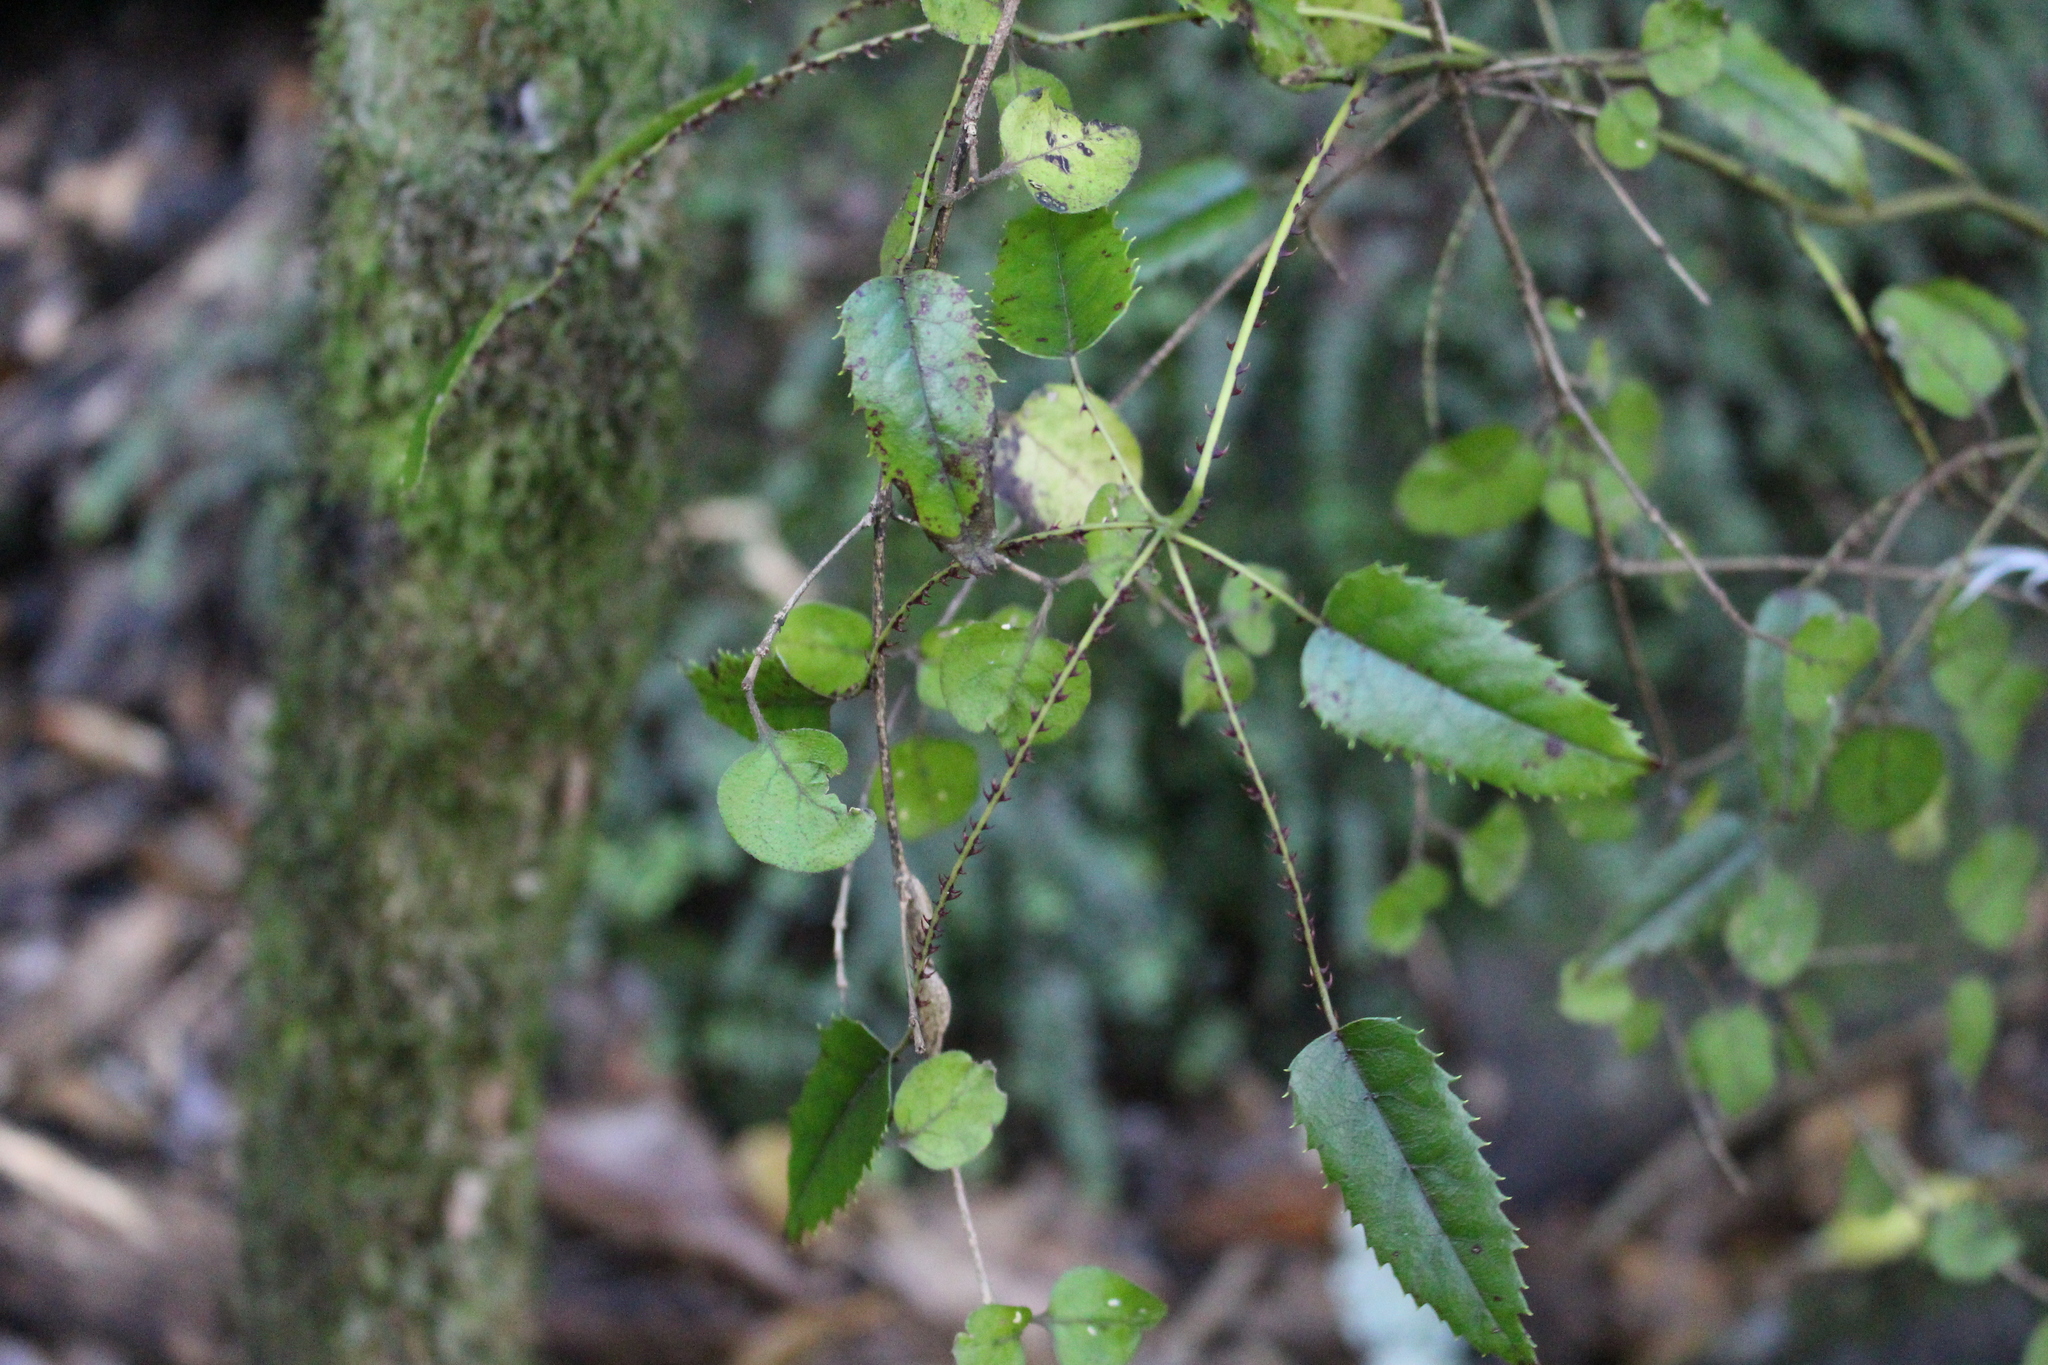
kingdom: Plantae
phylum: Tracheophyta
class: Magnoliopsida
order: Rosales
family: Rosaceae
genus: Rubus
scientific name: Rubus cissoides
